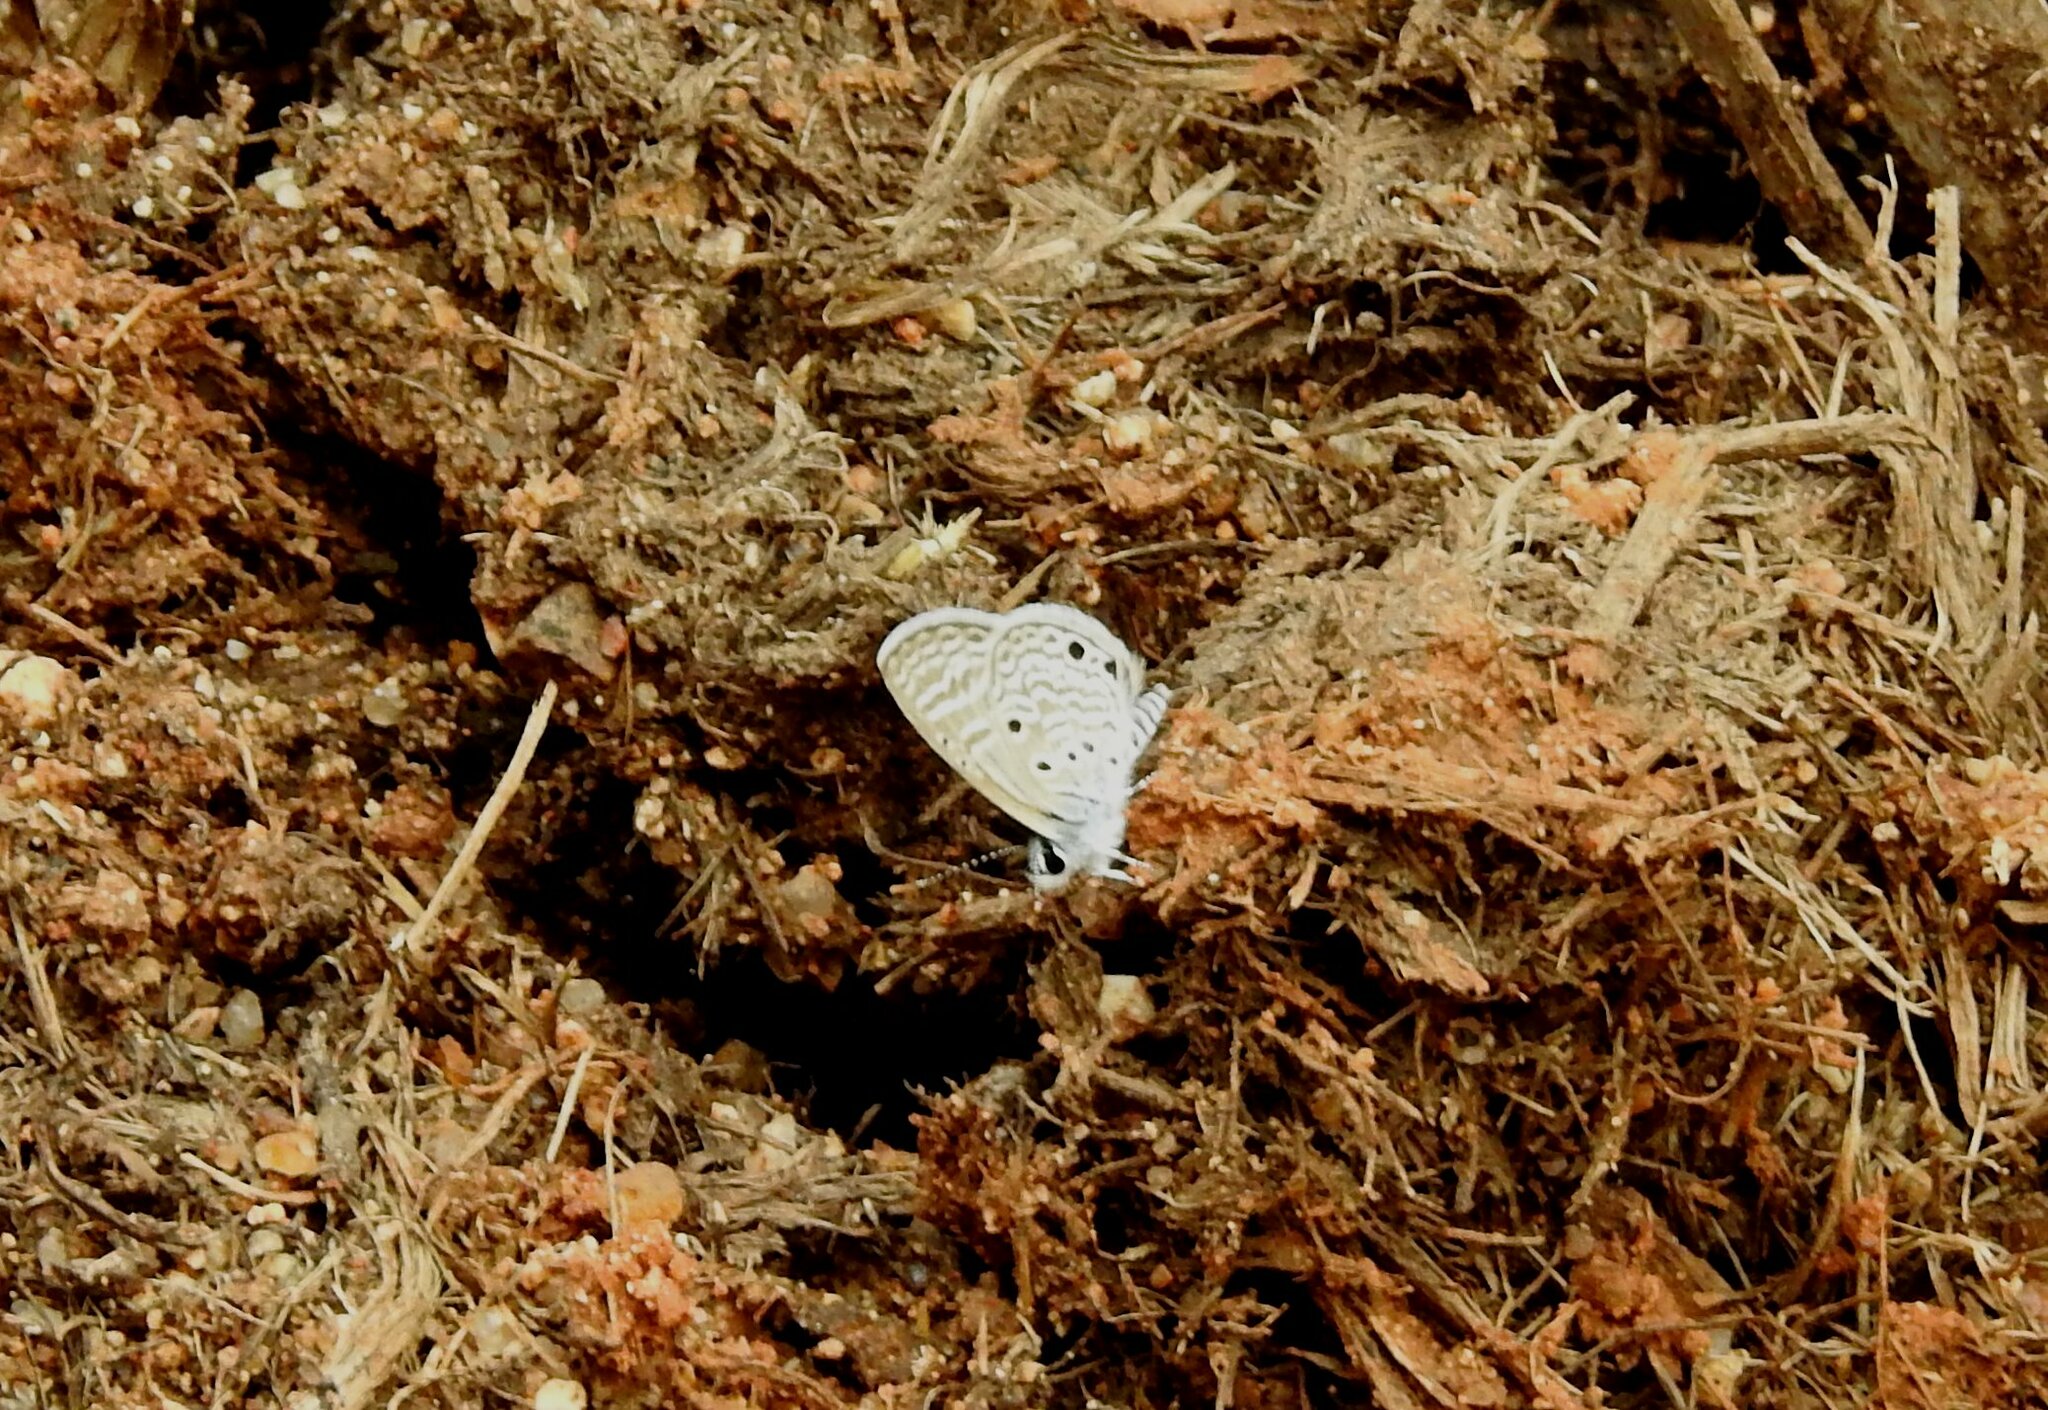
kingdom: Animalia
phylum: Arthropoda
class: Insecta
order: Lepidoptera
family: Lycaenidae
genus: Azanus
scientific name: Azanus ubaldus
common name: Desert babul blue
